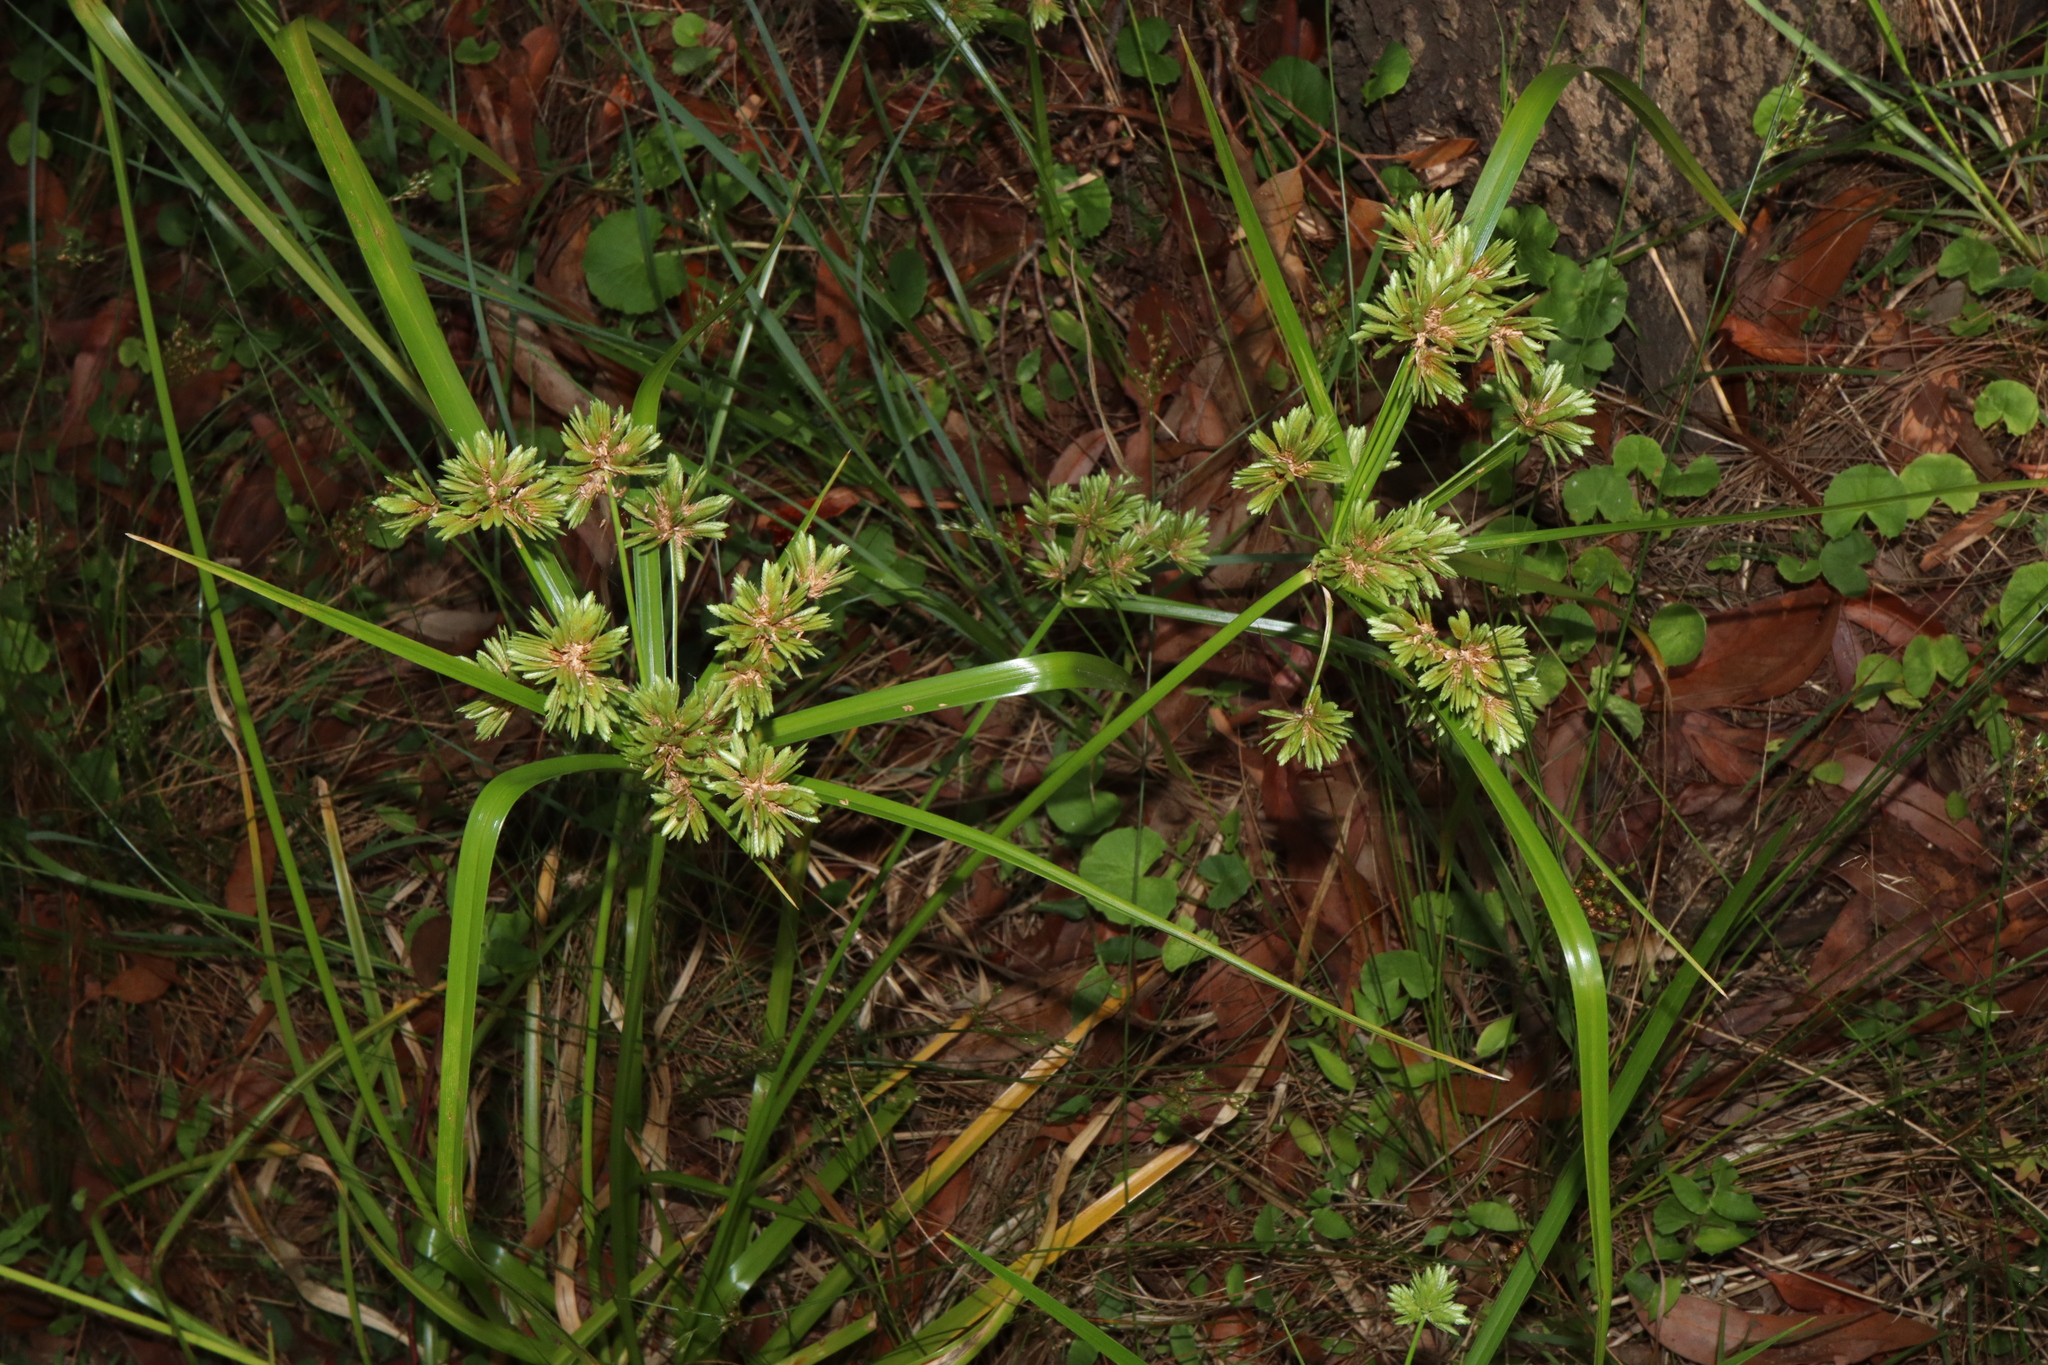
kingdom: Plantae
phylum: Tracheophyta
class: Liliopsida
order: Poales
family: Cyperaceae
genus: Cyperus
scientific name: Cyperus eragrostis
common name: Tall flatsedge
